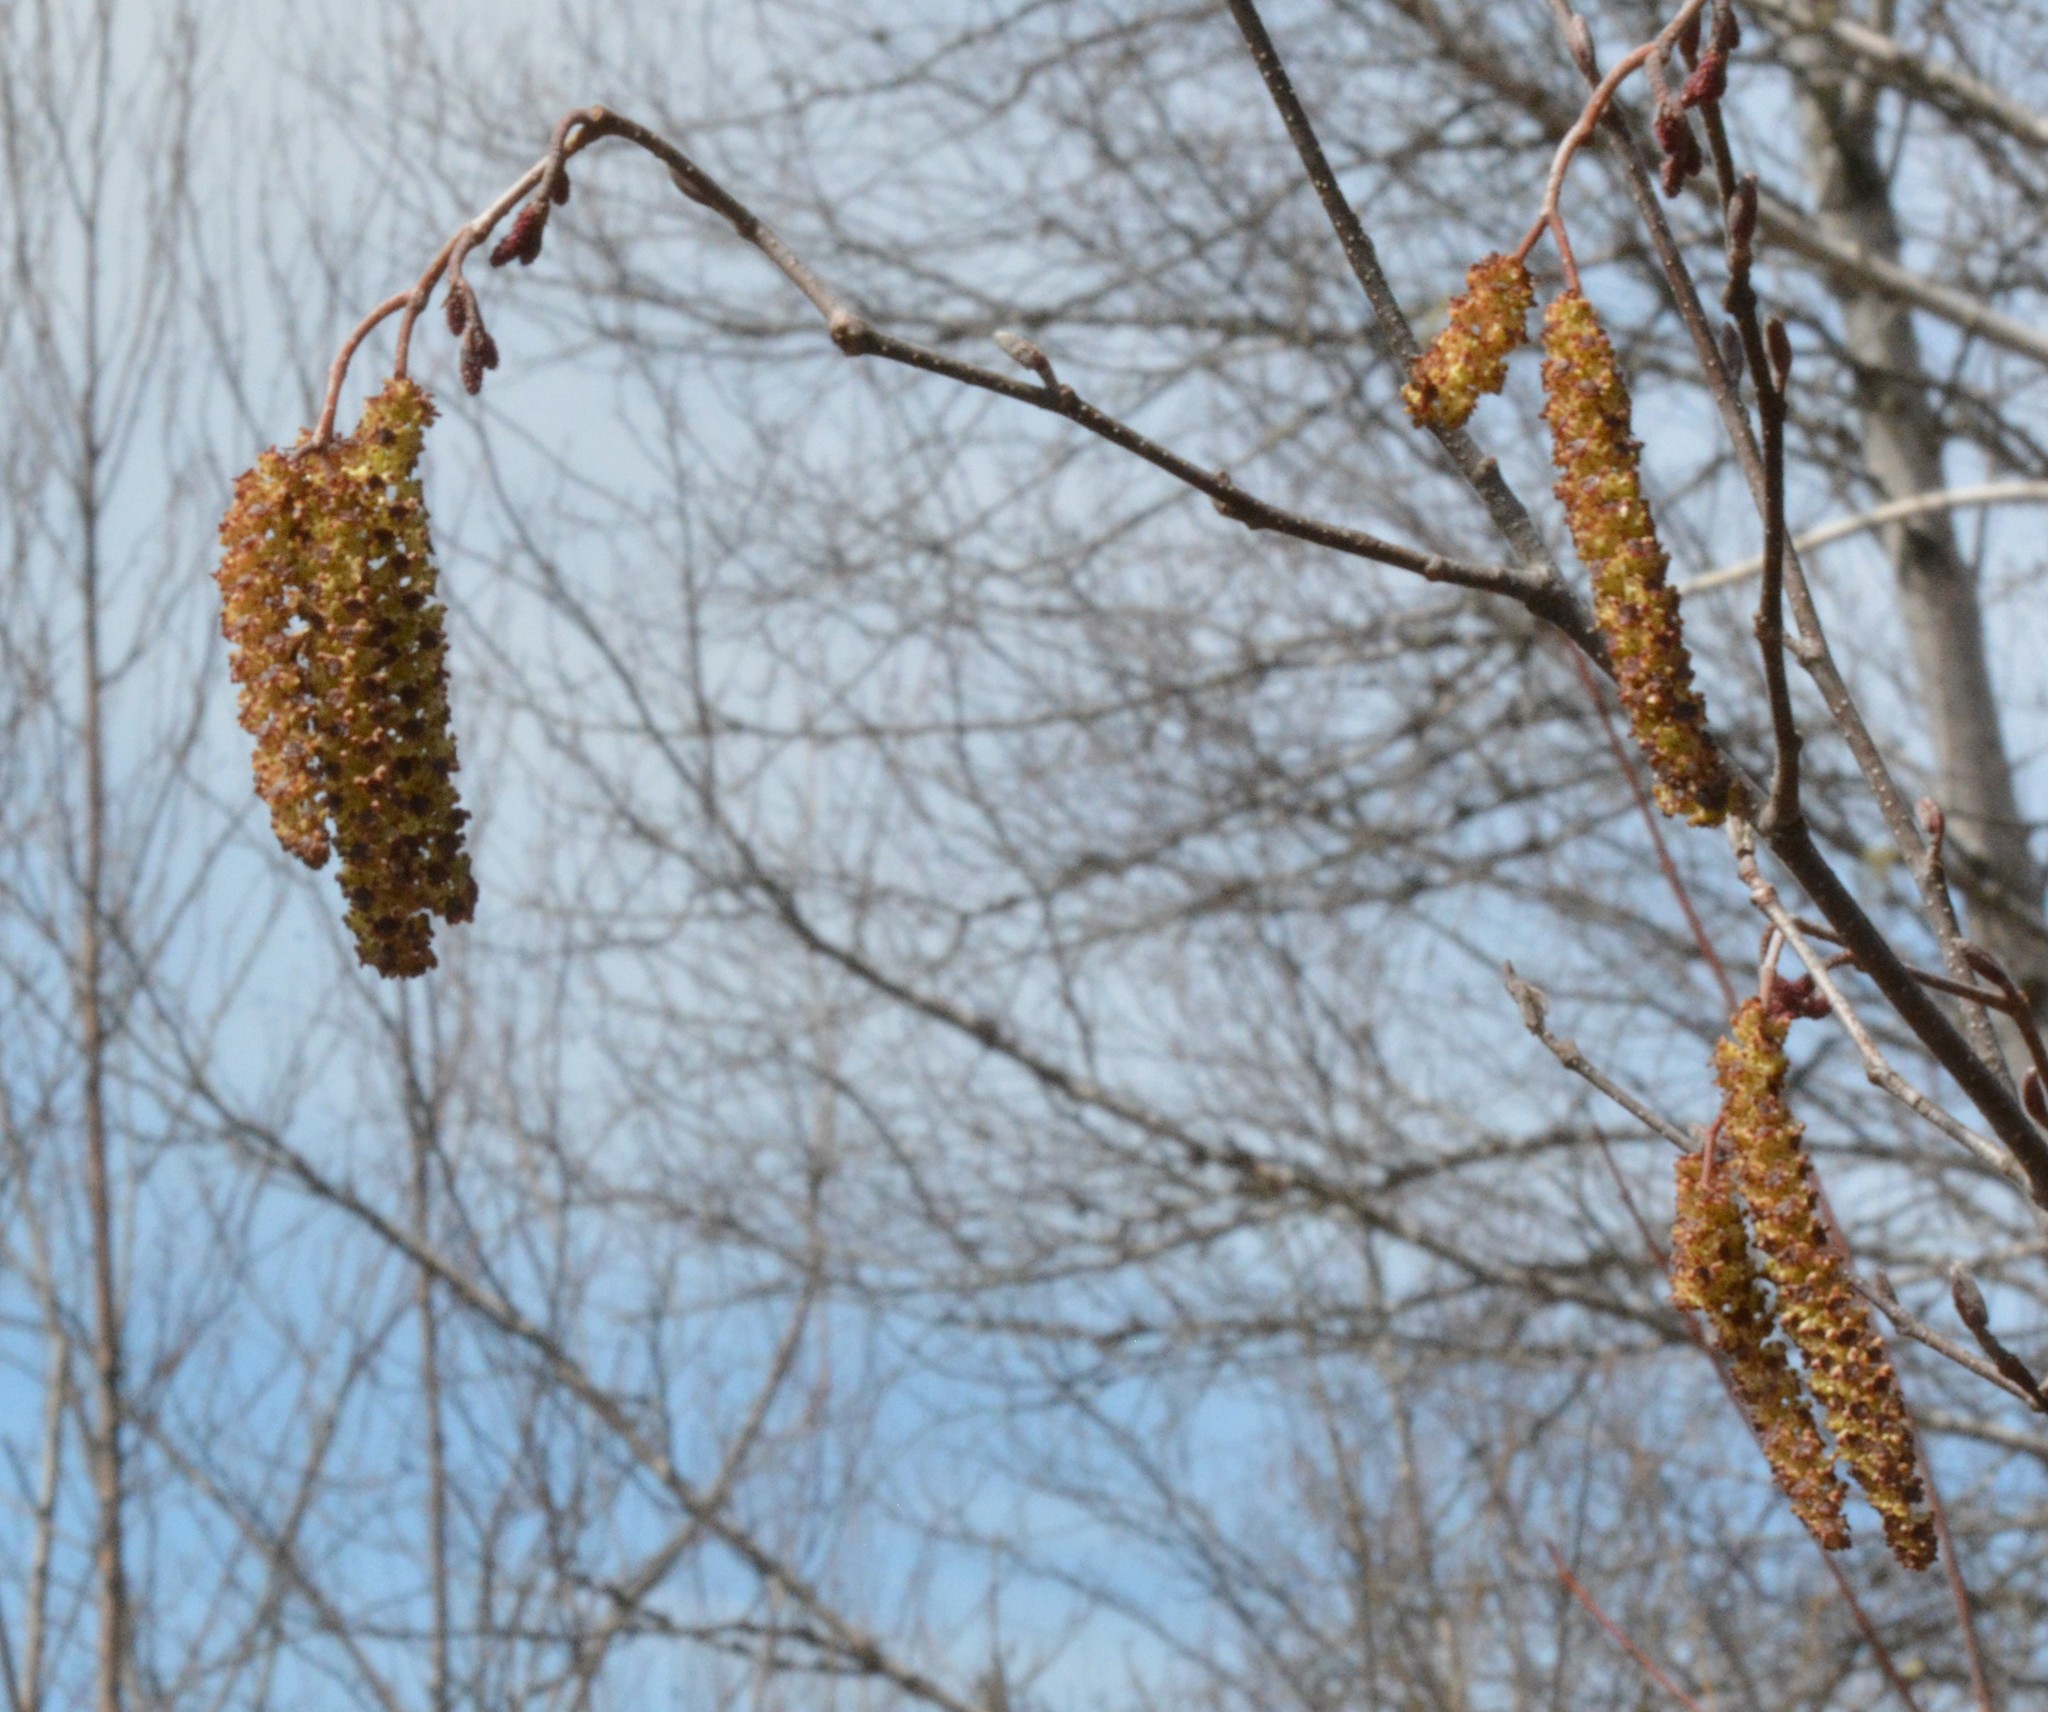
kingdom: Plantae
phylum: Tracheophyta
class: Magnoliopsida
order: Fagales
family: Betulaceae
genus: Alnus
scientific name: Alnus incana
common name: Grey alder
